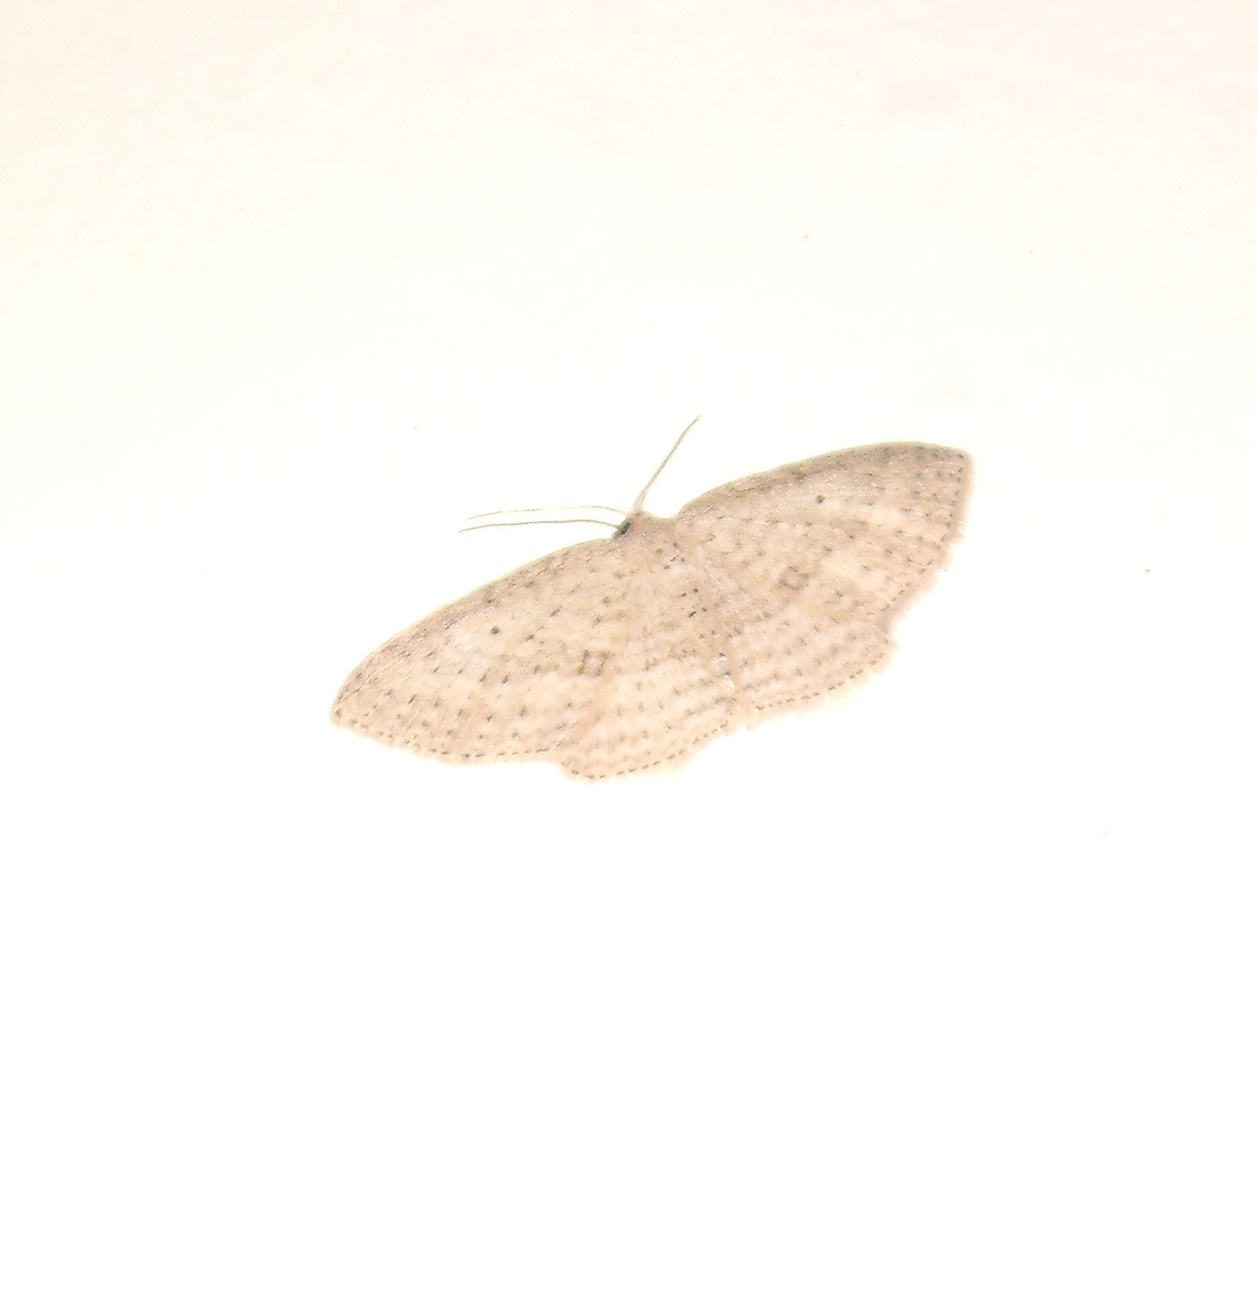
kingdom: Animalia
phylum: Arthropoda
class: Insecta
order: Lepidoptera
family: Geometridae
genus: Poecilasthena
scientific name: Poecilasthena schistaria
